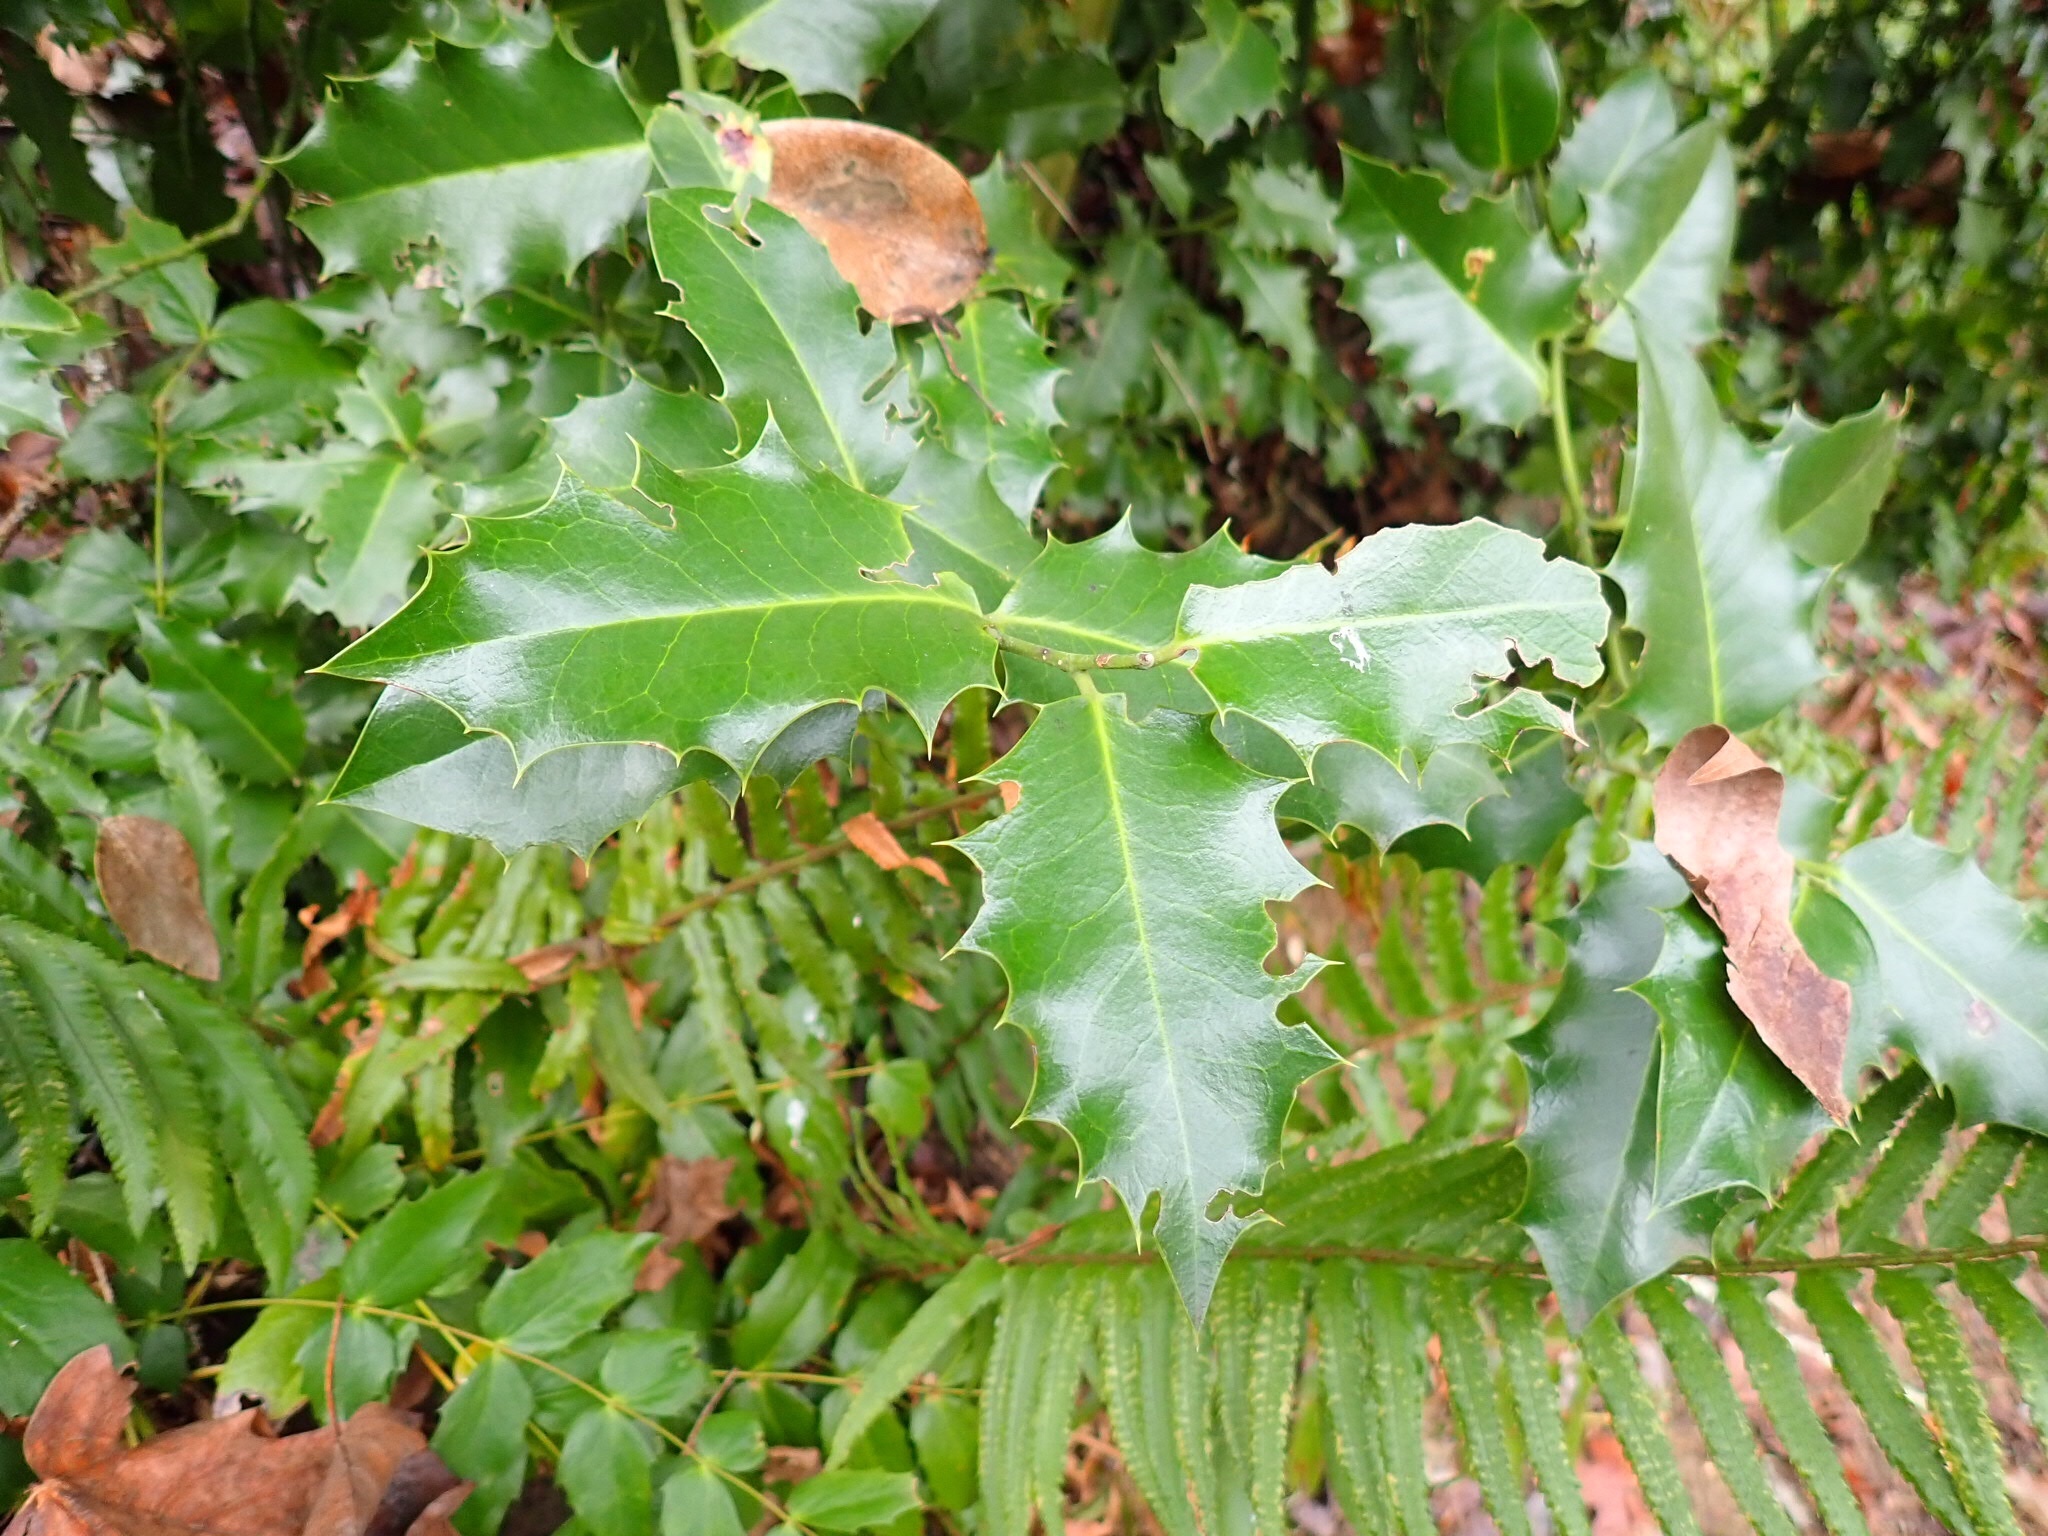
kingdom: Plantae
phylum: Tracheophyta
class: Magnoliopsida
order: Aquifoliales
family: Aquifoliaceae
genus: Ilex
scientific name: Ilex aquifolium
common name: English holly
